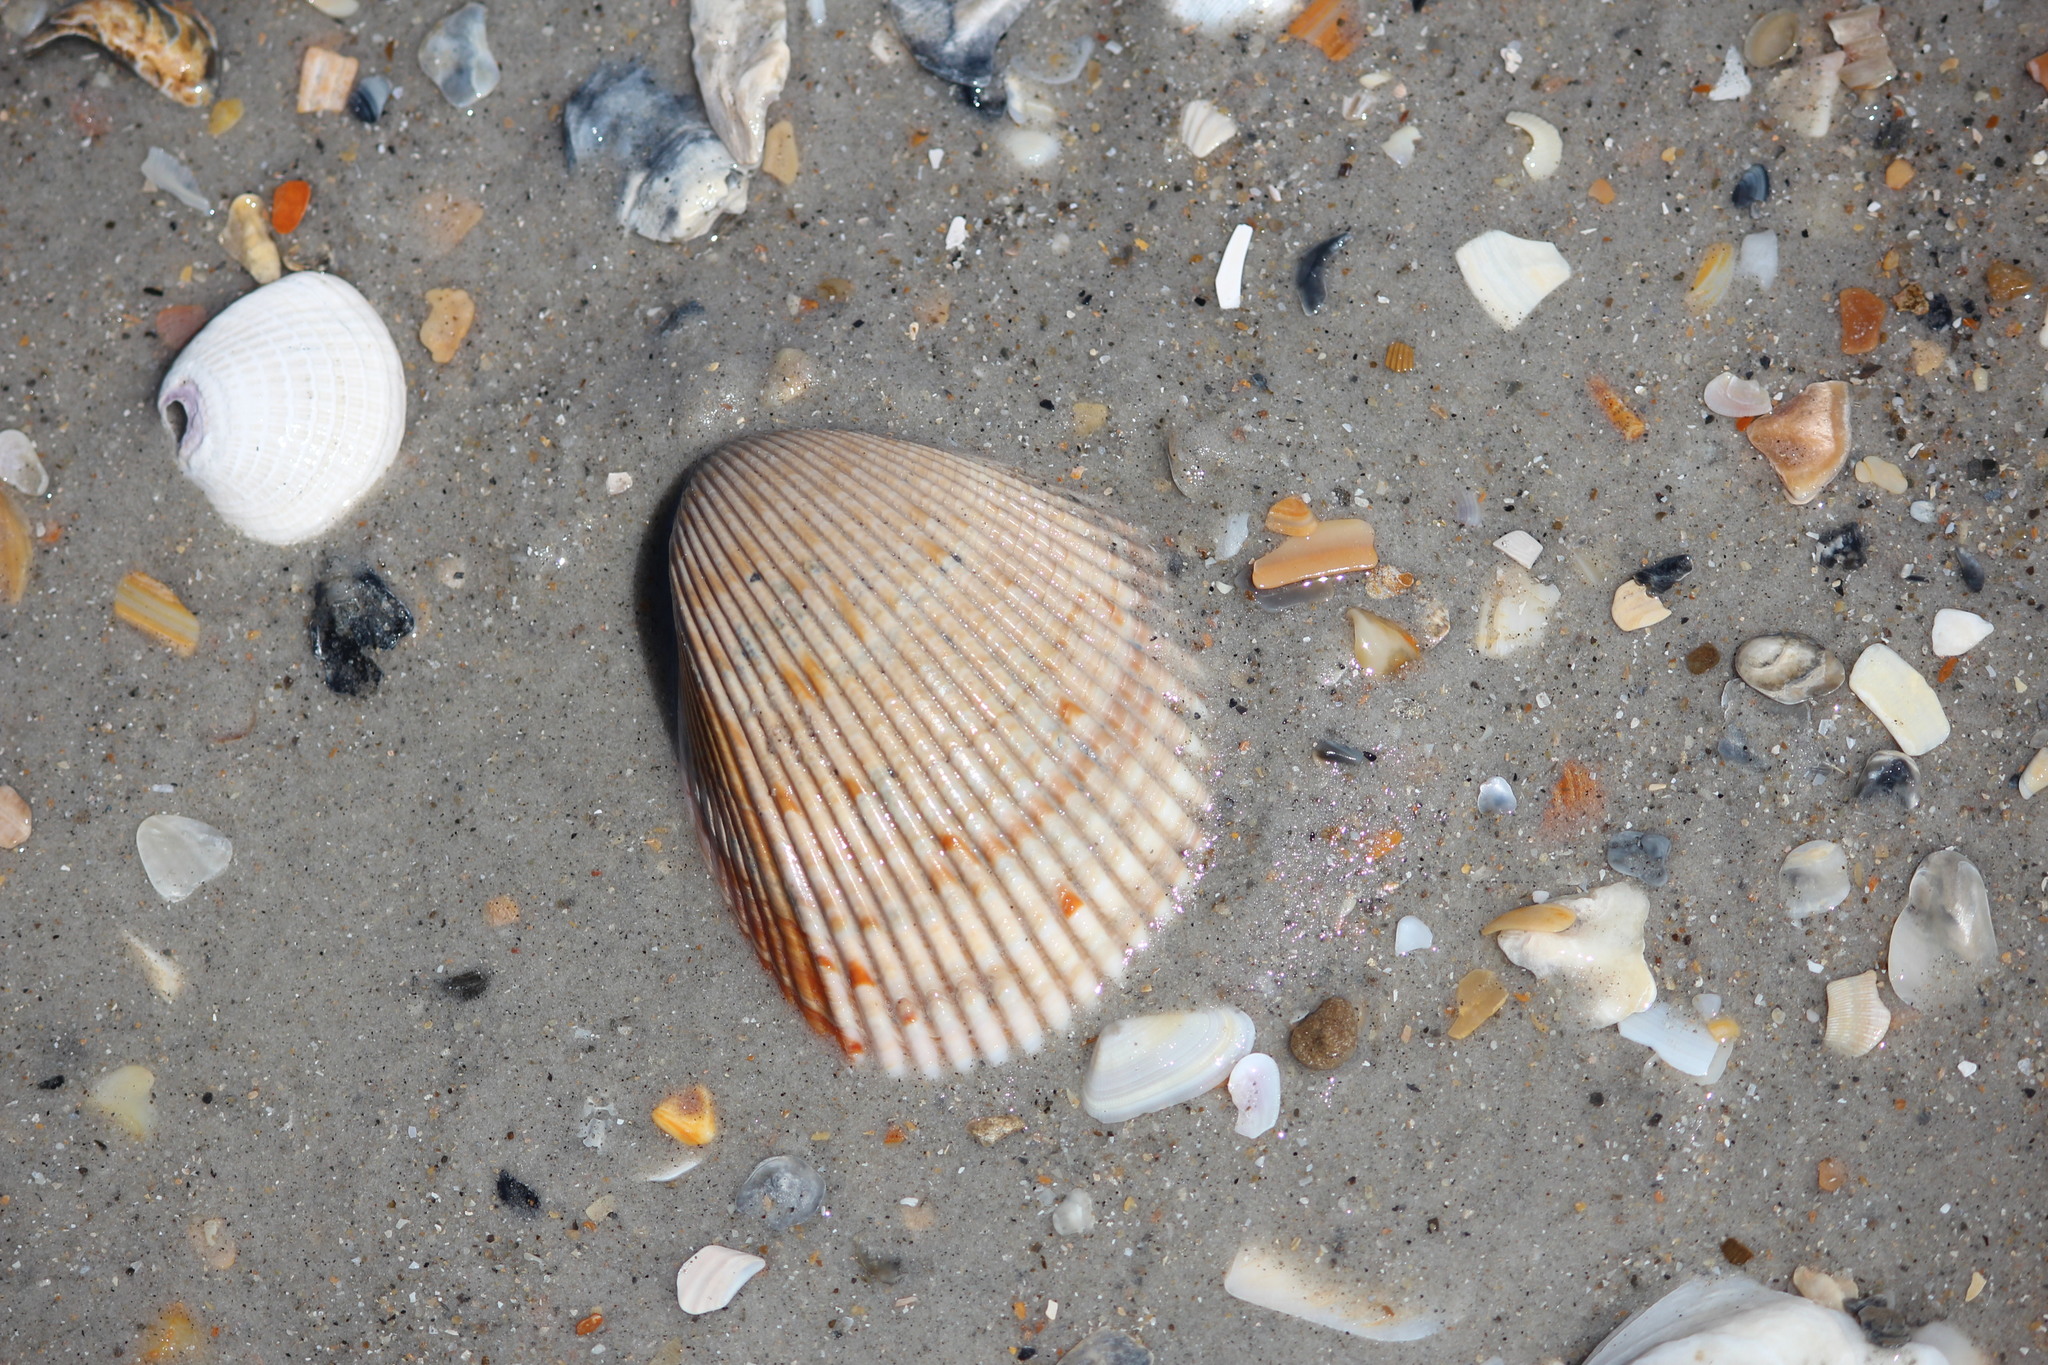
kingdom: Animalia
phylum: Mollusca
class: Bivalvia
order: Cardiida
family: Cardiidae
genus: Dinocardium
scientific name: Dinocardium robustum
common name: Atlantic giant cockle
